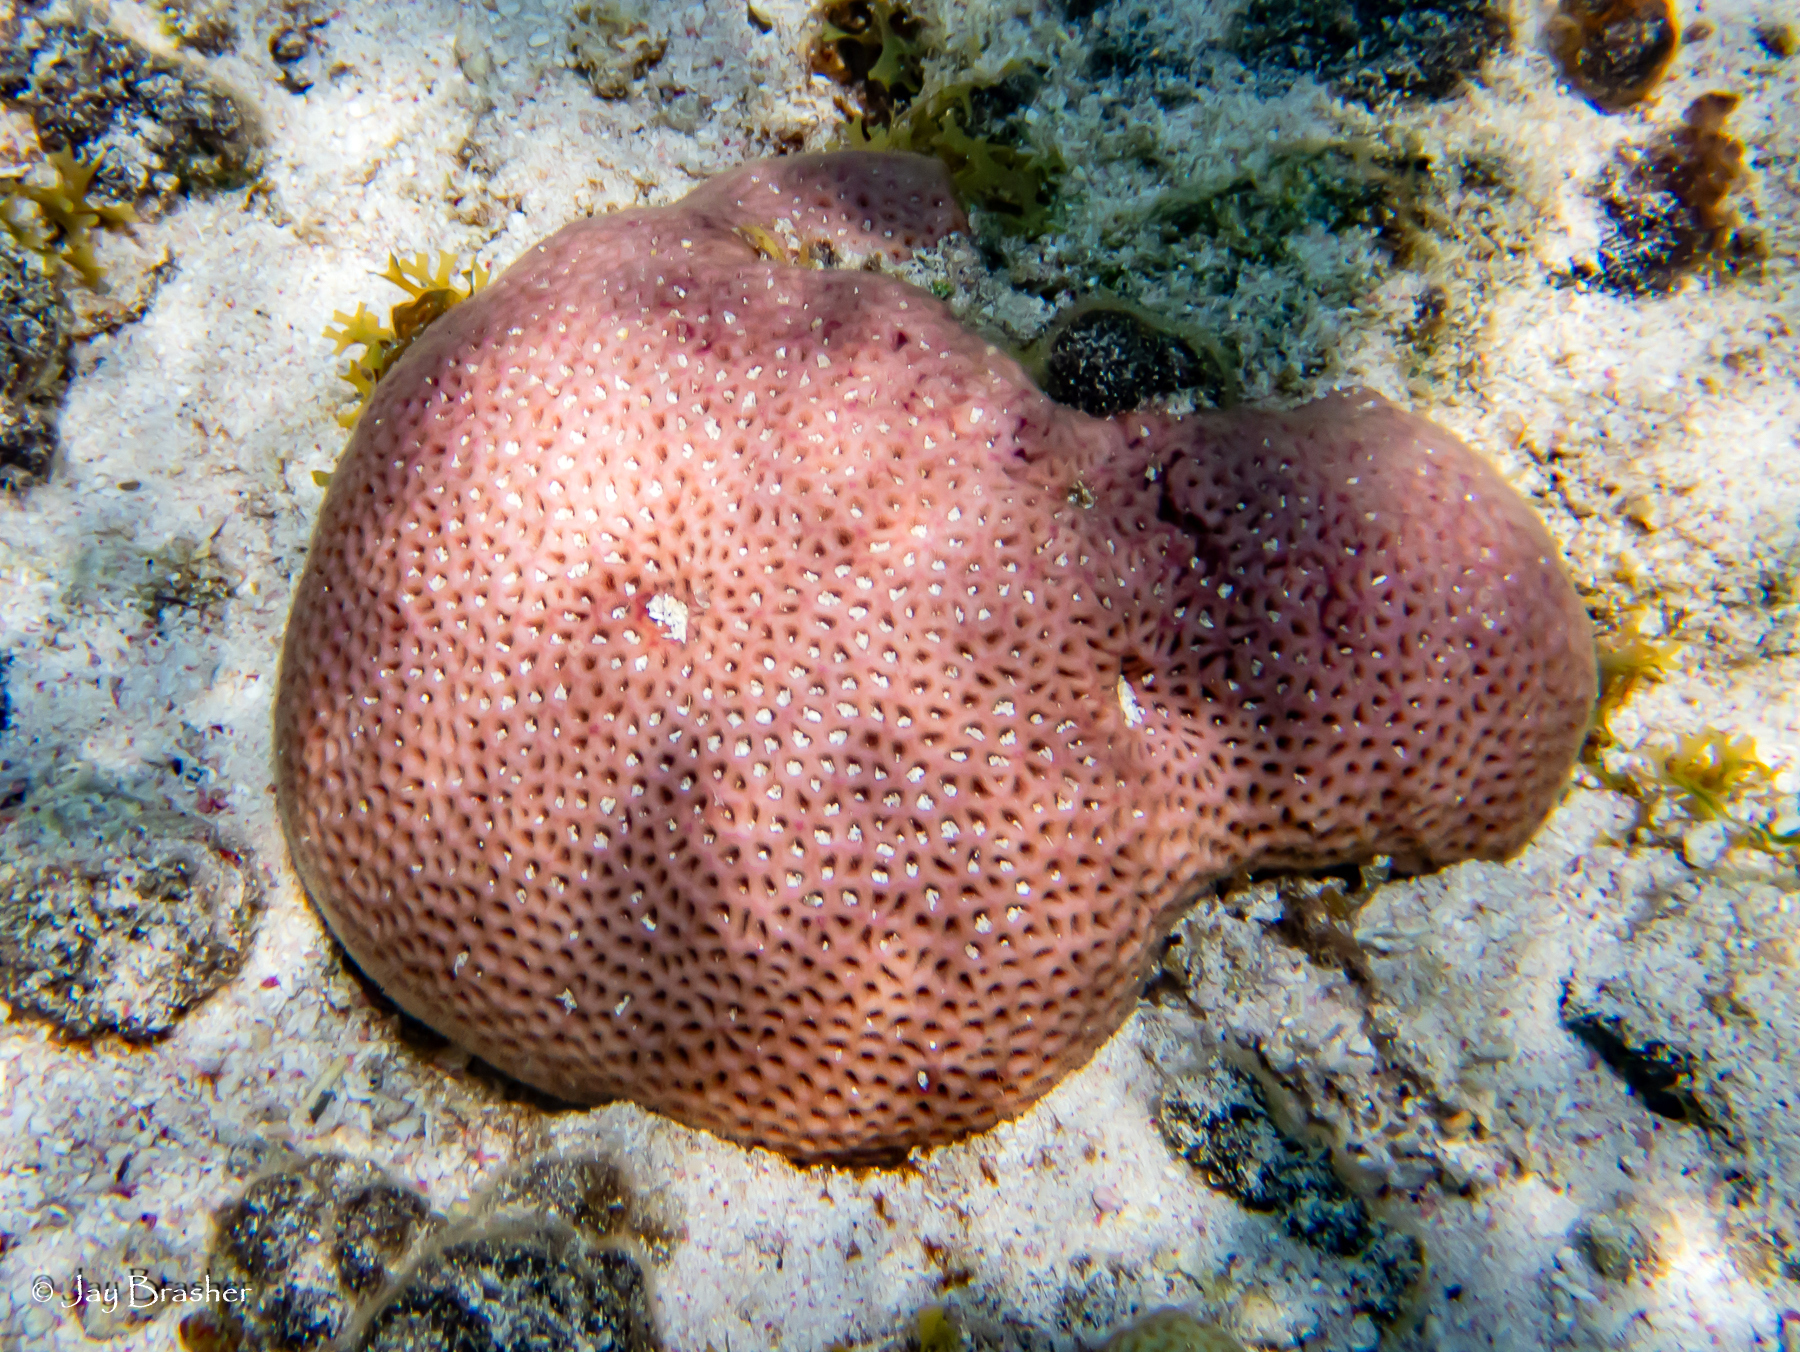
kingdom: Animalia
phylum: Cnidaria
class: Anthozoa
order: Scleractinia
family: Rhizangiidae
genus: Siderastrea
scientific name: Siderastrea siderea
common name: Massive starlet coral
